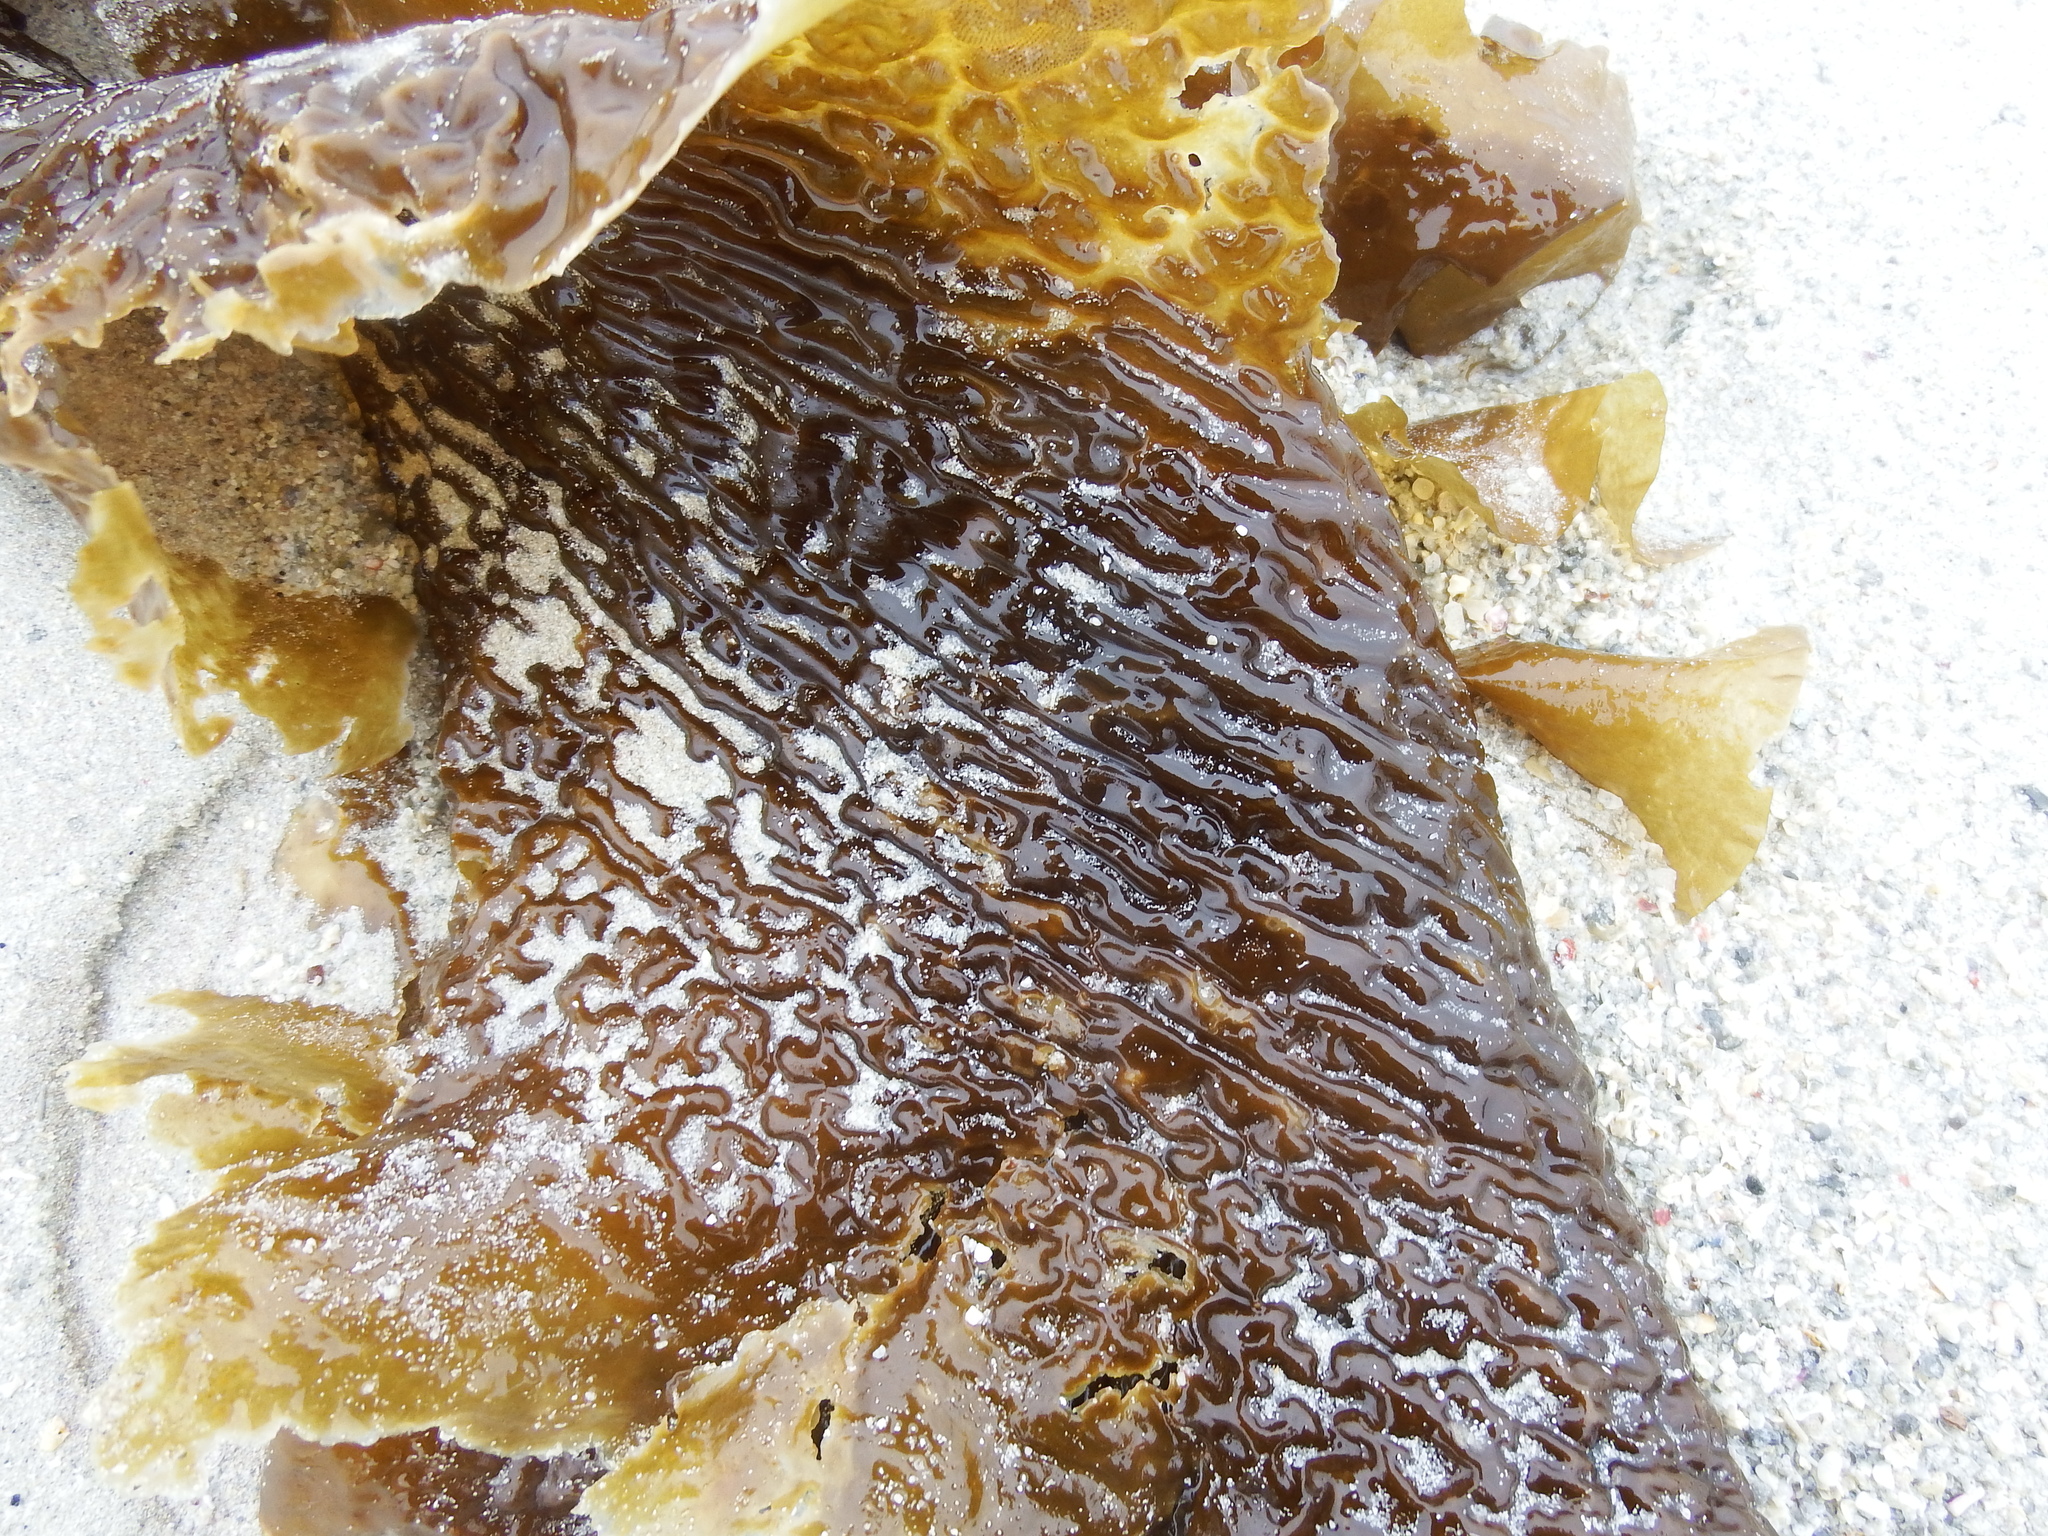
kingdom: Chromista
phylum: Ochrophyta
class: Phaeophyceae
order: Laminariales
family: Laminariaceae
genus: Saccharina
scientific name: Saccharina latissima
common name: Poor man's weather glass
